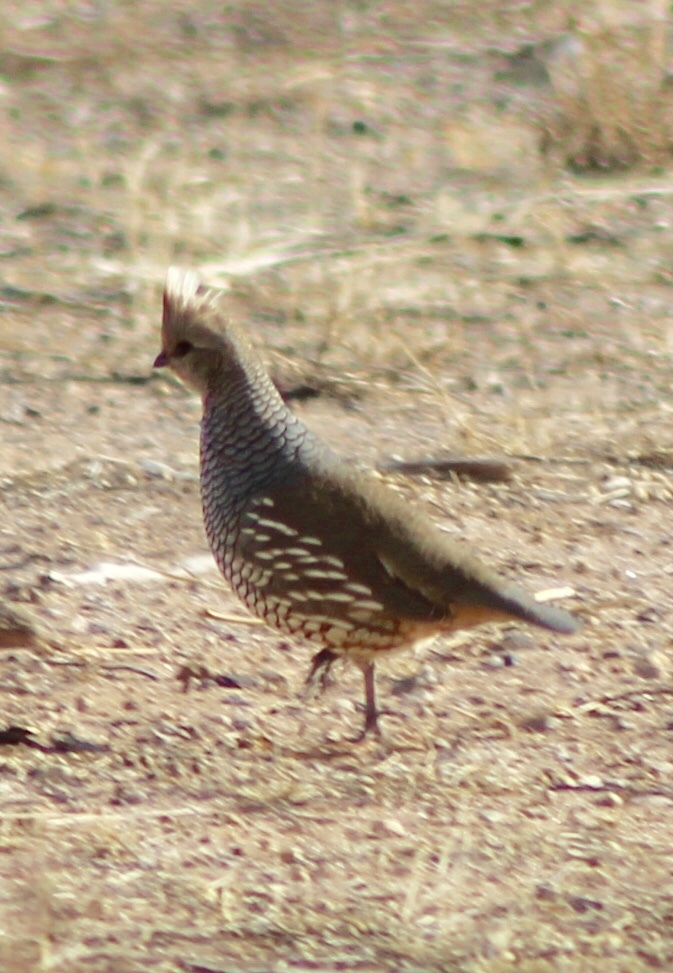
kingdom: Animalia
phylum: Chordata
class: Aves
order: Galliformes
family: Odontophoridae
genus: Callipepla
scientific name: Callipepla squamata
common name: Scaled quail
